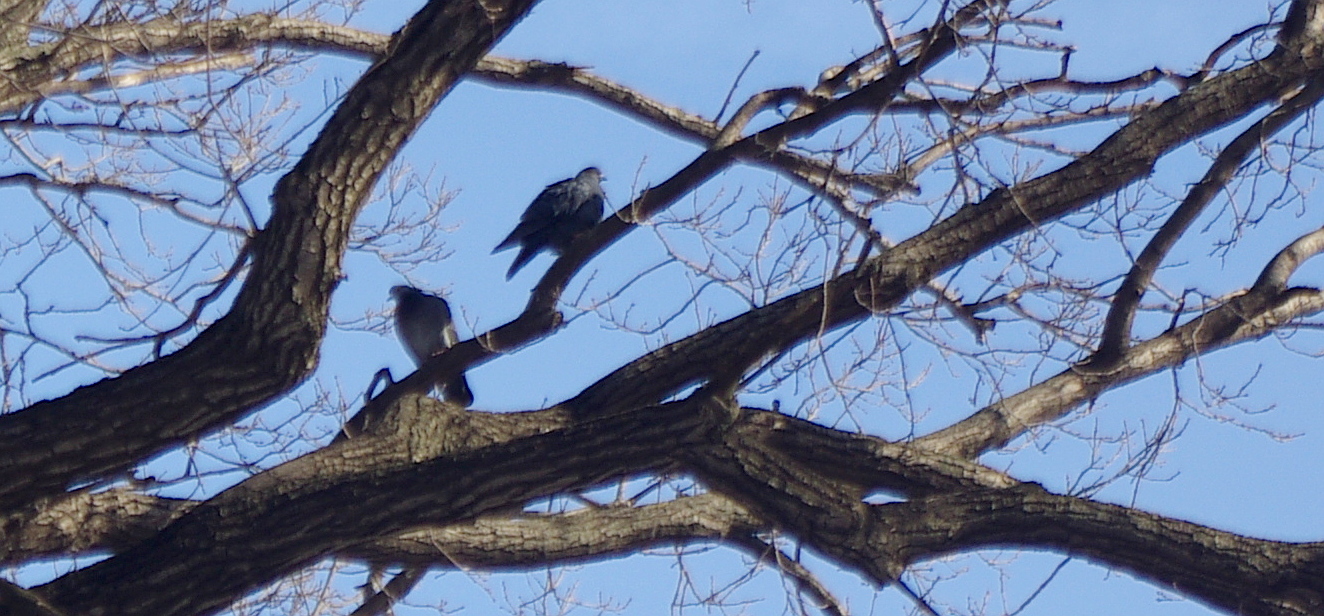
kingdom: Animalia
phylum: Chordata
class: Aves
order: Columbiformes
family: Columbidae
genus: Columba
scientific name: Columba livia
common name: Rock pigeon
